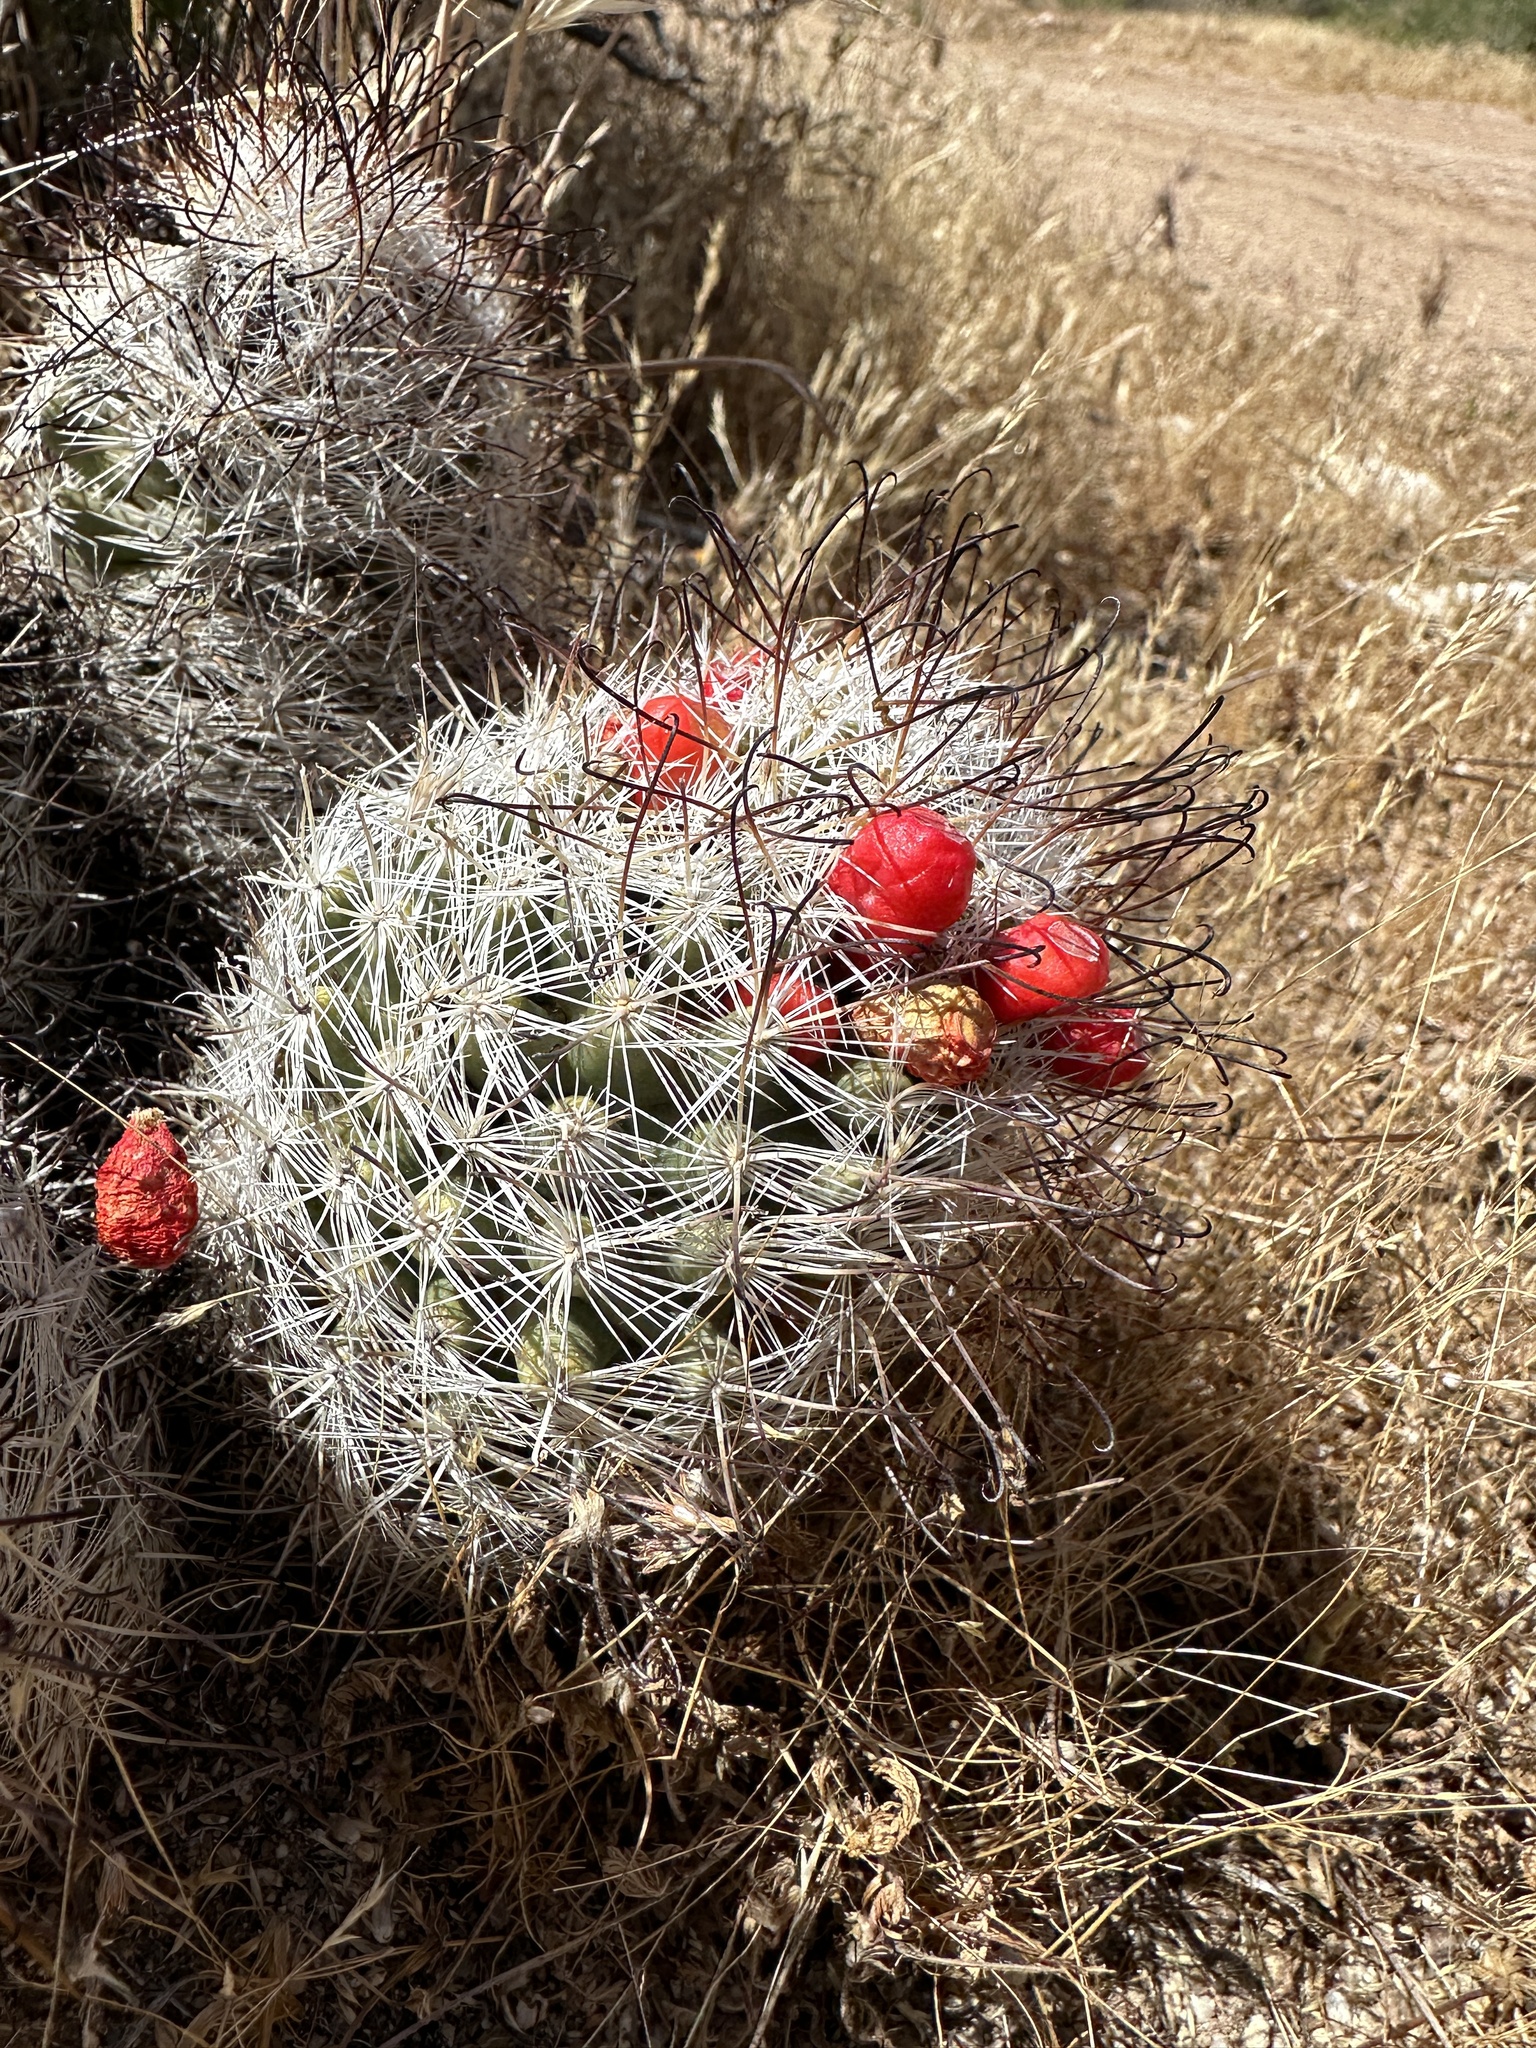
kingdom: Plantae
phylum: Tracheophyta
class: Magnoliopsida
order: Caryophyllales
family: Cactaceae
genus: Cochemiea
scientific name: Cochemiea tetrancistra
